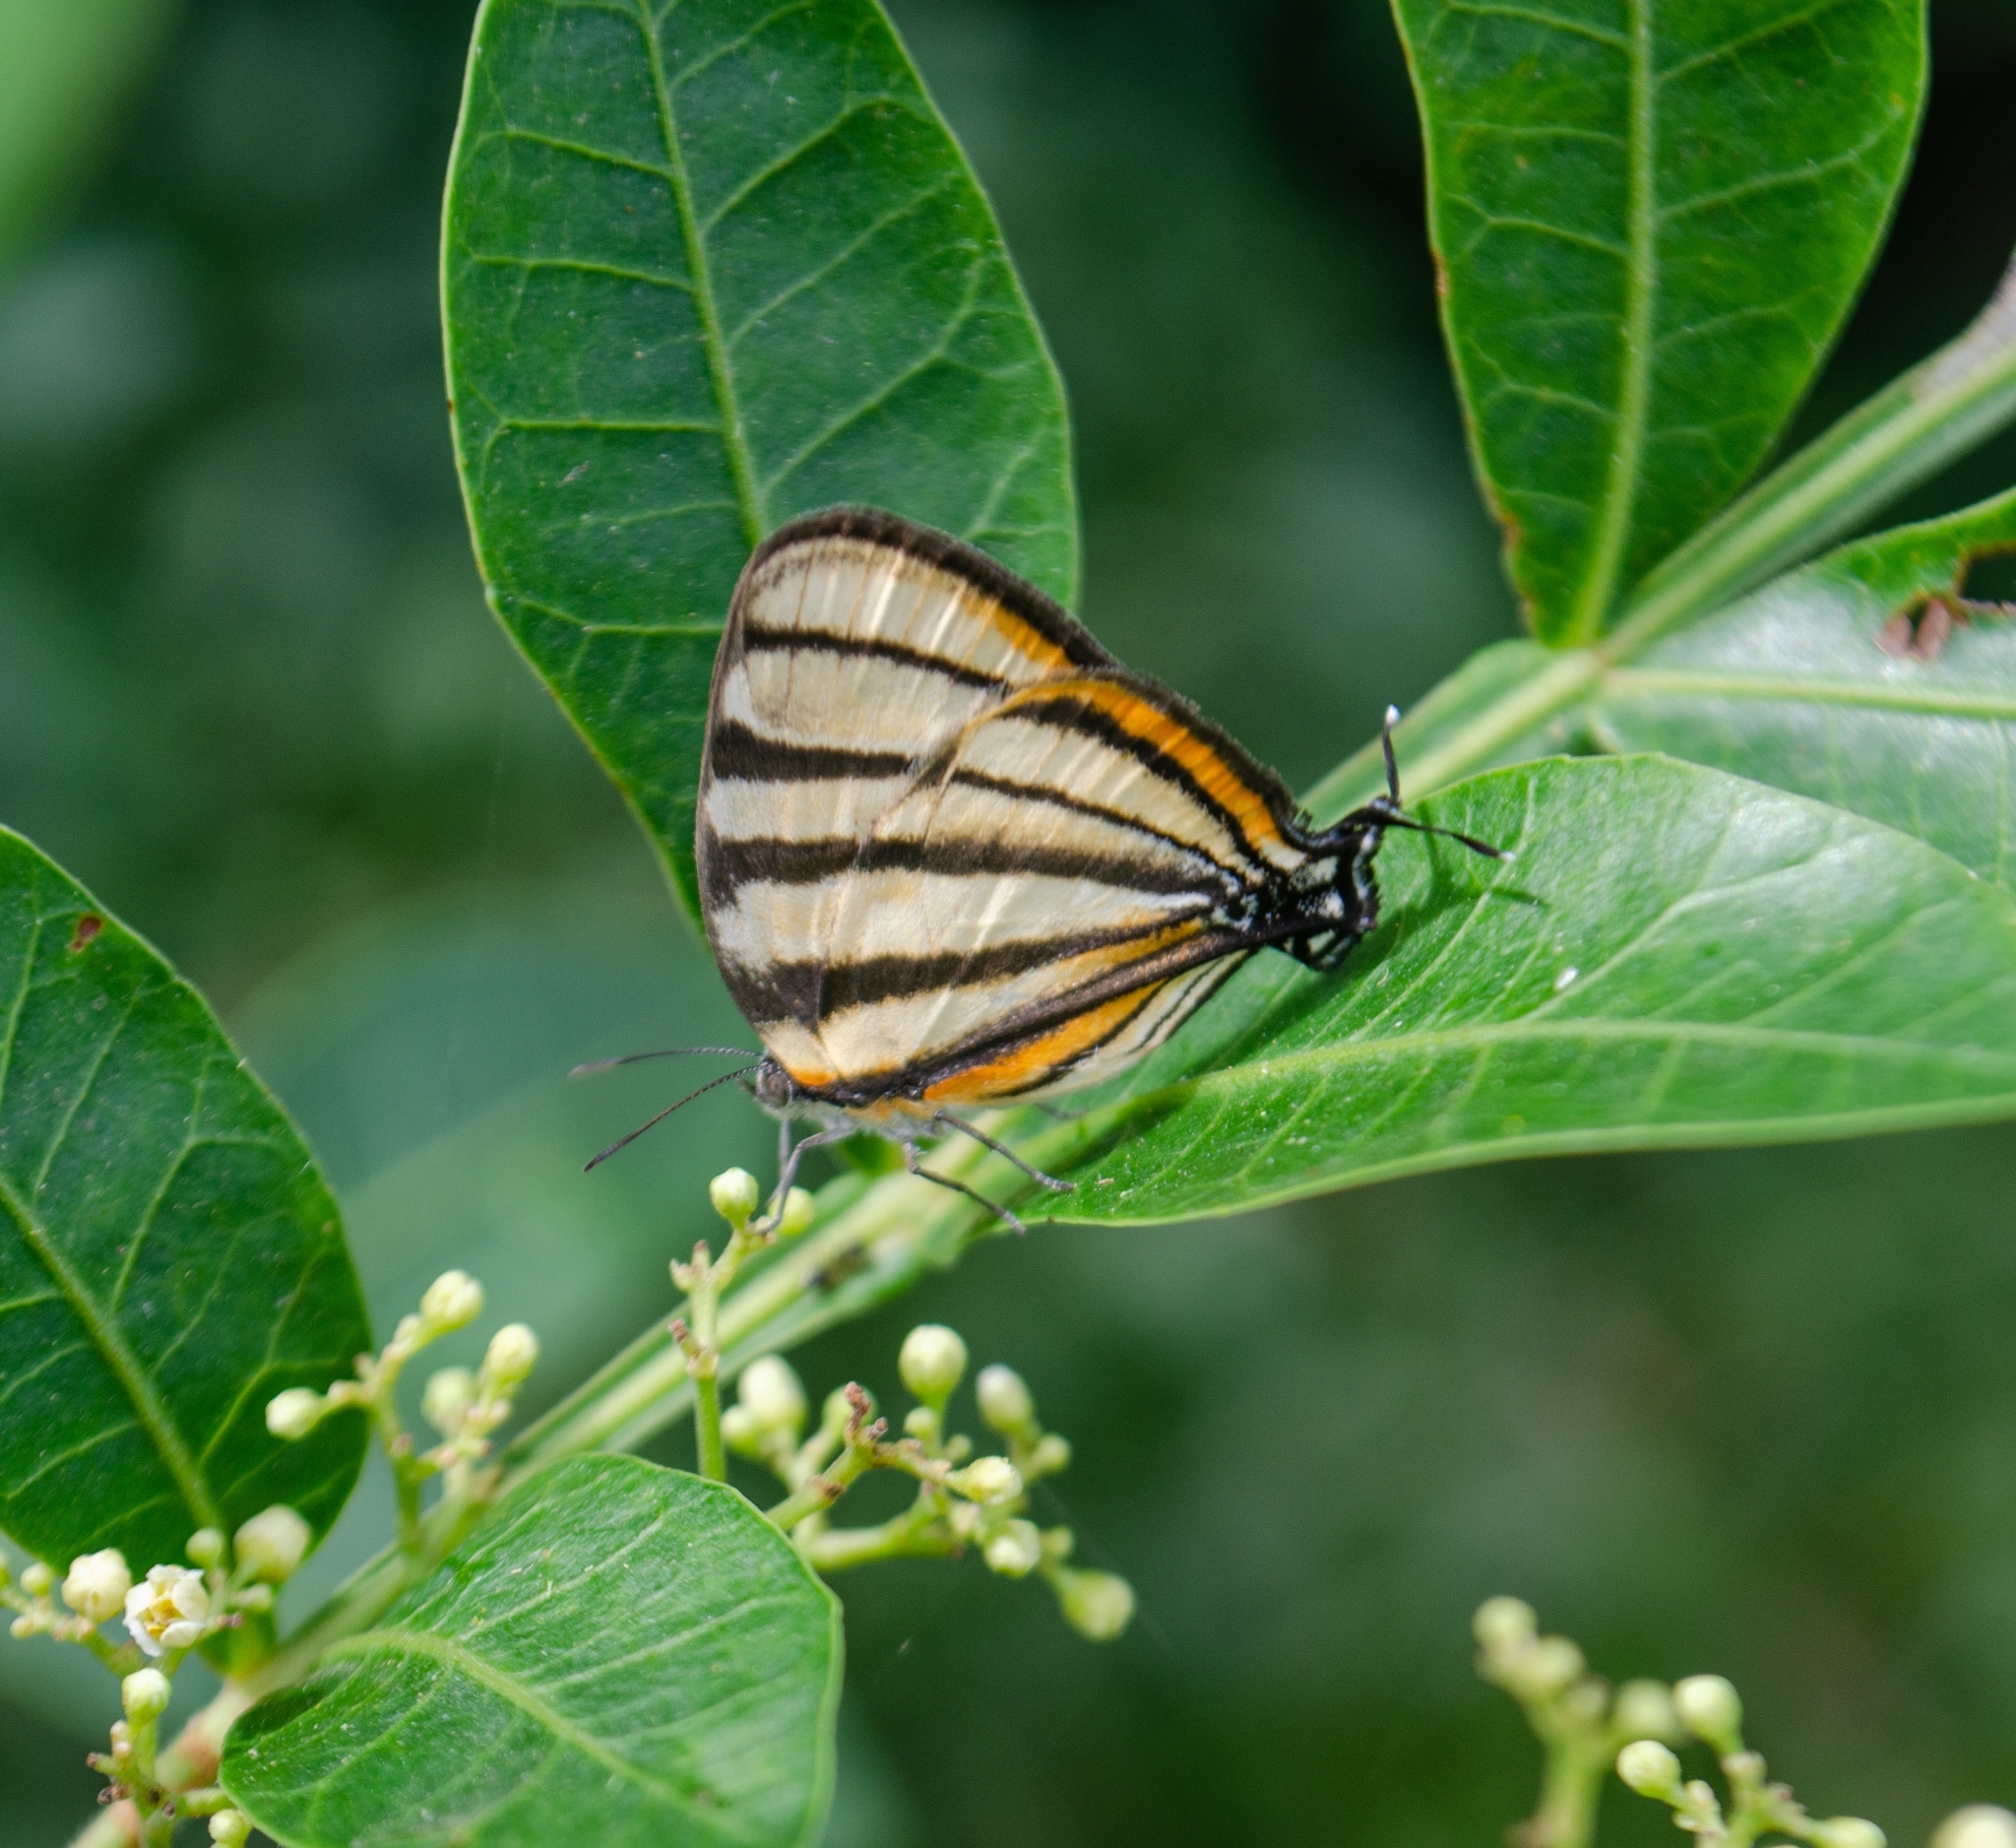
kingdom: Animalia
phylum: Arthropoda
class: Insecta
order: Lepidoptera
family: Lycaenidae
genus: Arawacus
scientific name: Arawacus separata
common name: Separated stripestreak
